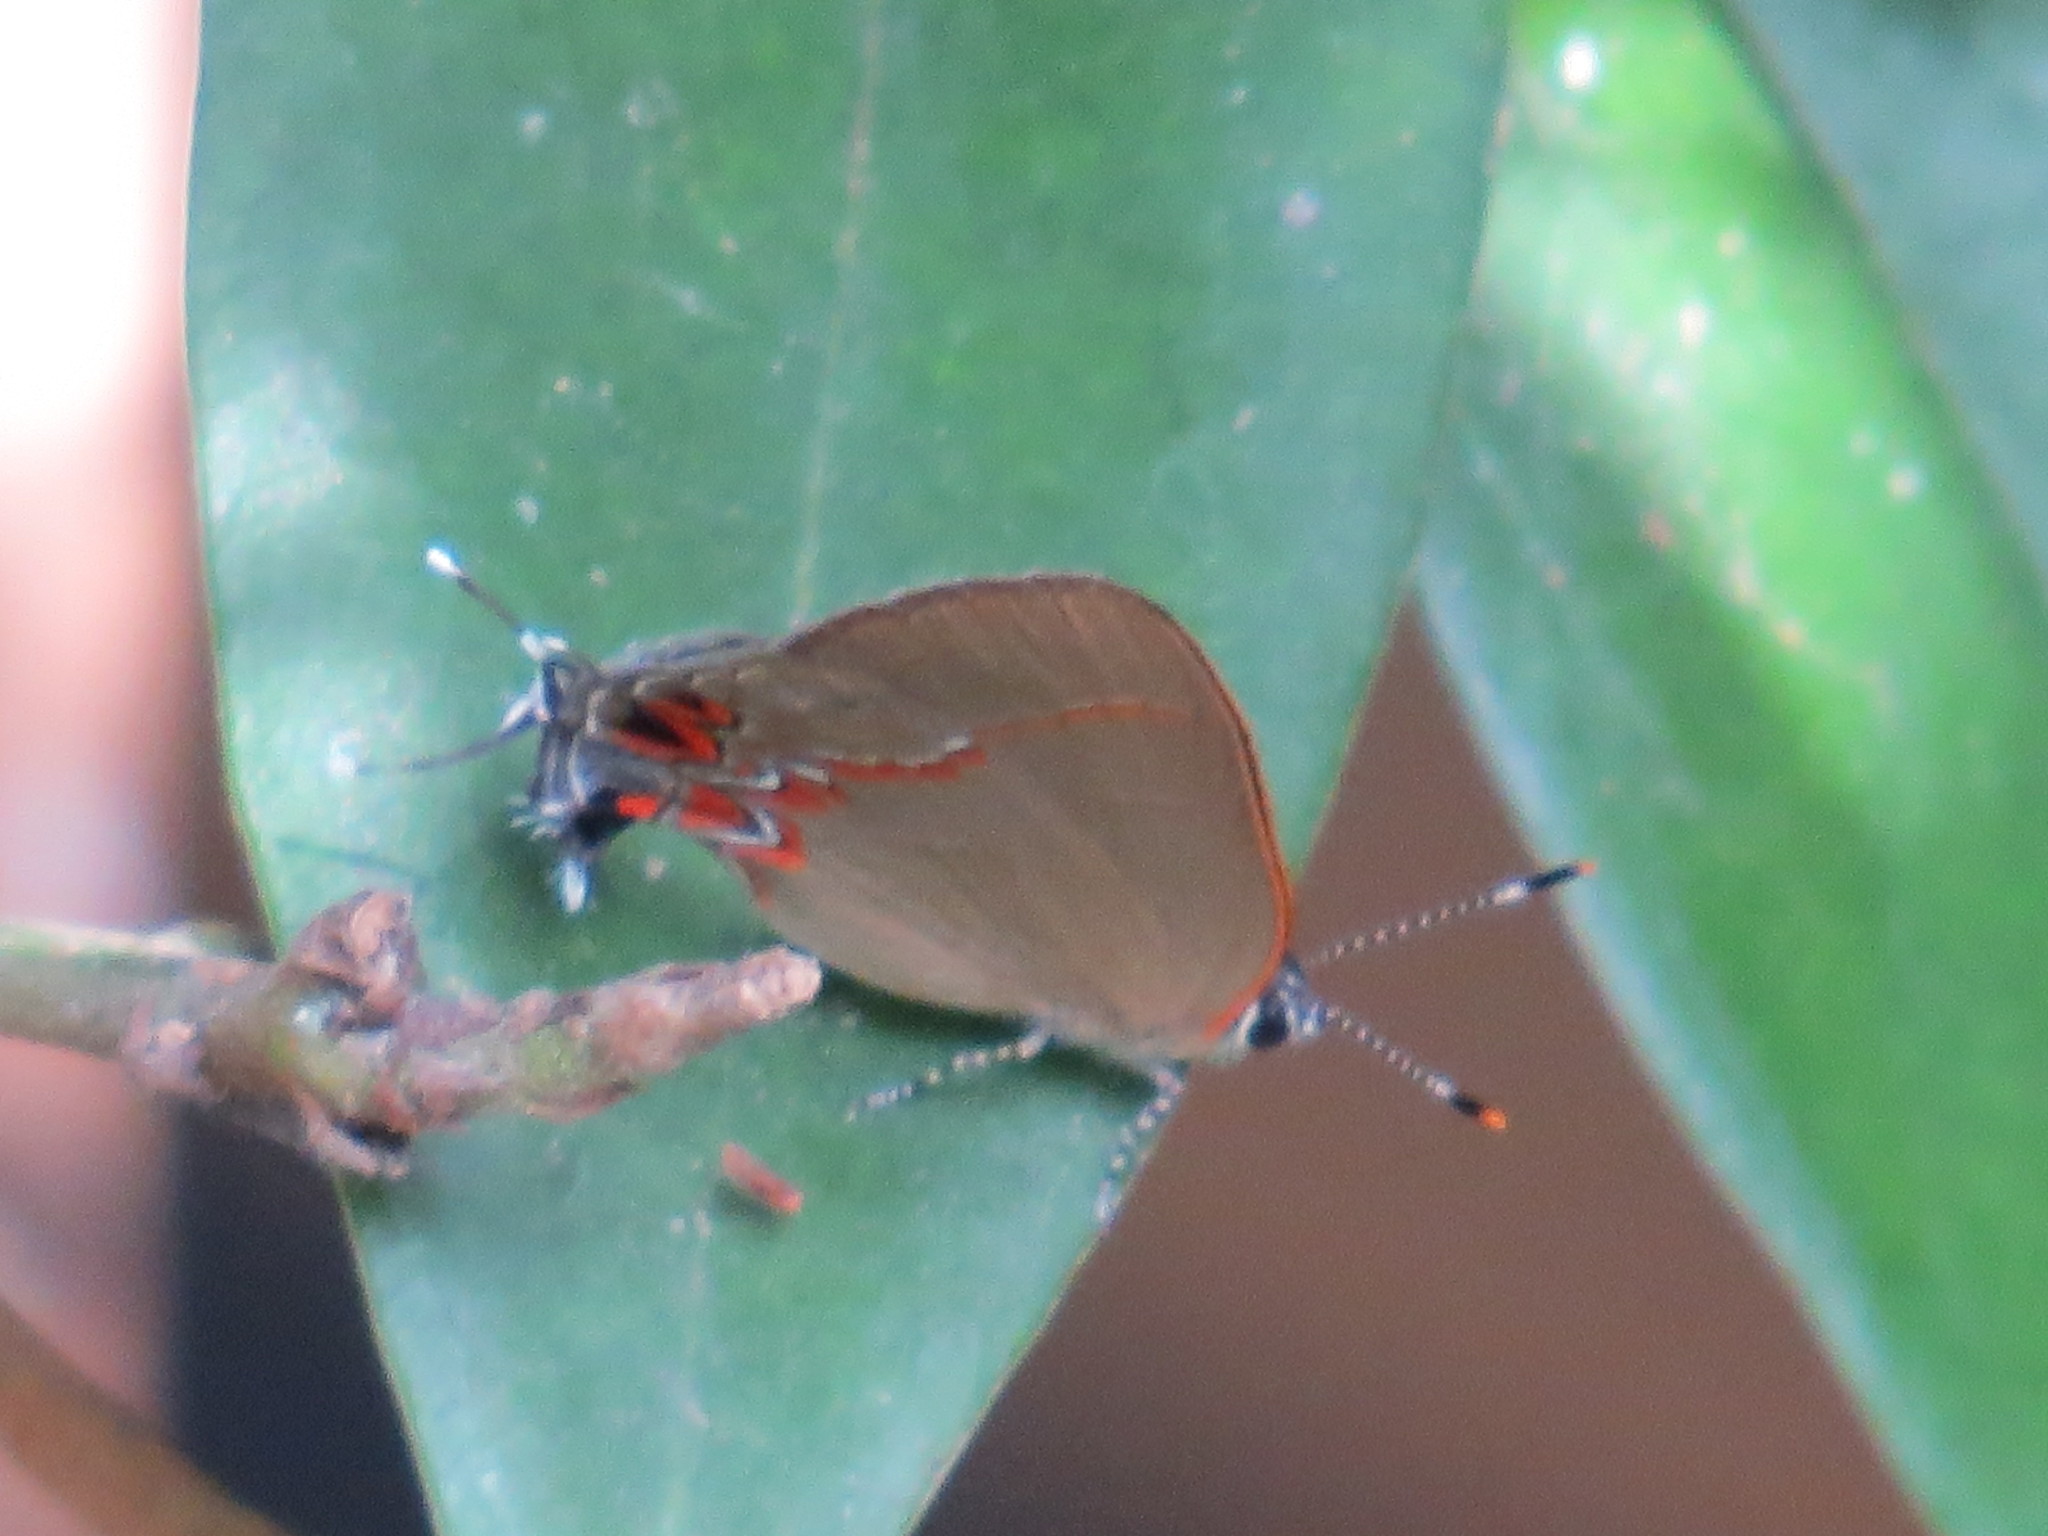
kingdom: Animalia
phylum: Arthropoda
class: Insecta
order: Lepidoptera
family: Lycaenidae
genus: Calycopis
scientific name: Calycopis isobeon
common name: Dusky-blue groundstreak
